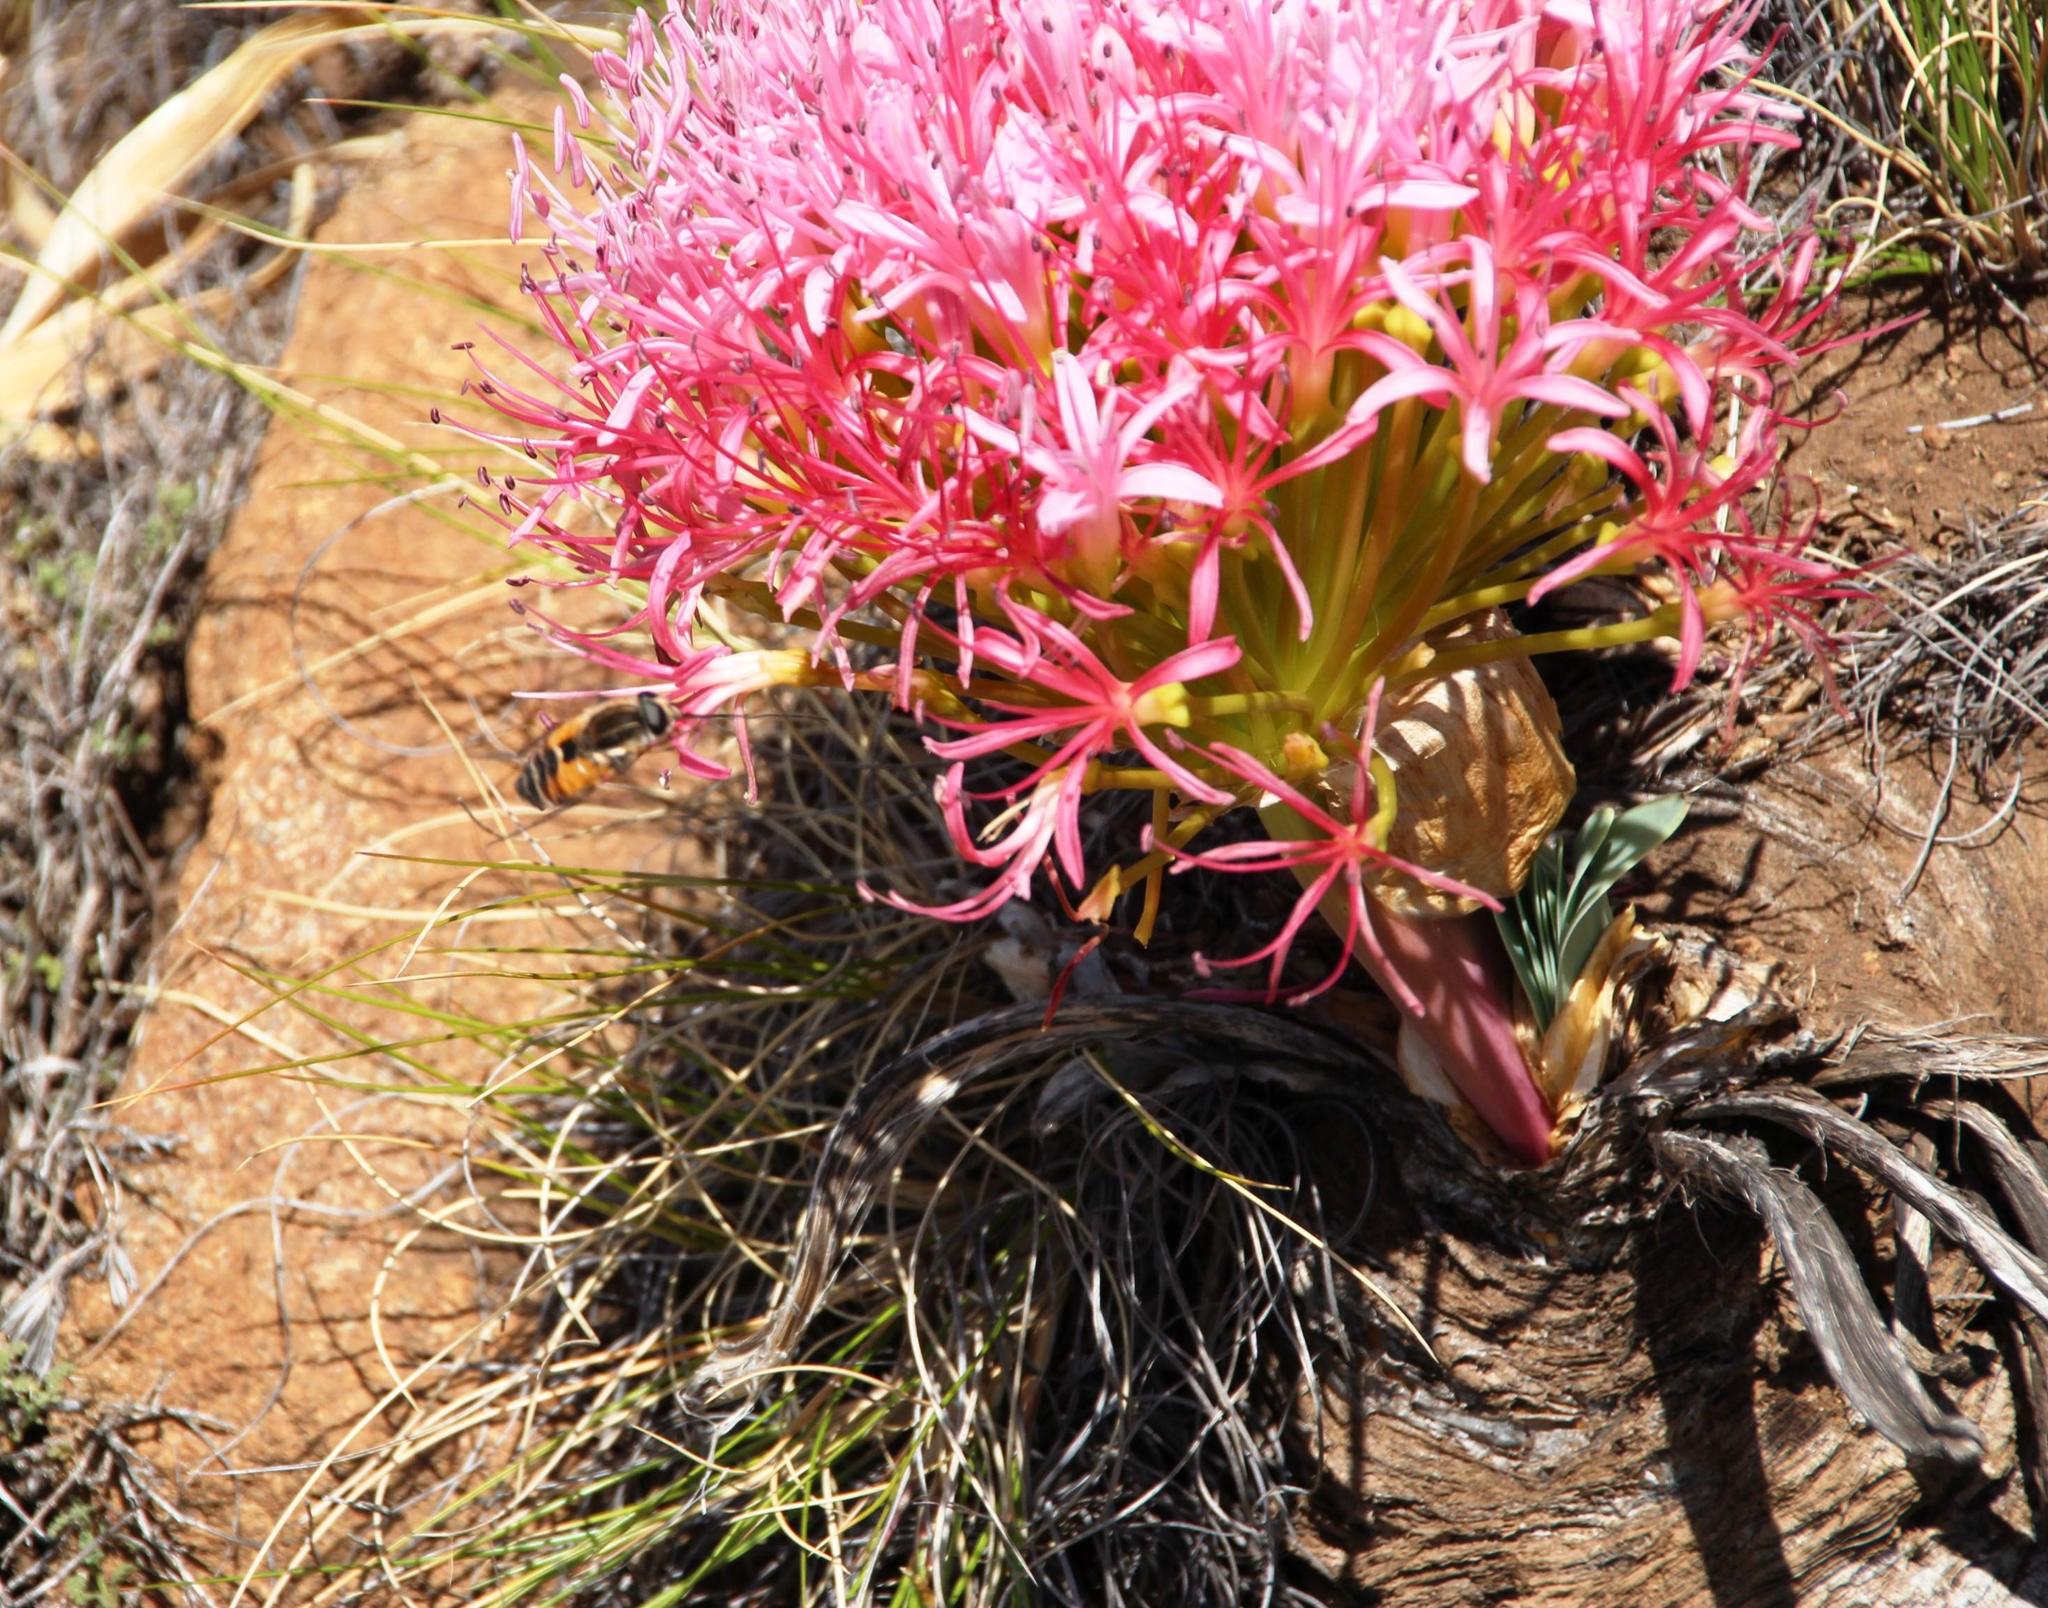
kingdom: Plantae
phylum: Tracheophyta
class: Liliopsida
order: Asparagales
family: Amaryllidaceae
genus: Boophone
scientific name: Boophone disticha
